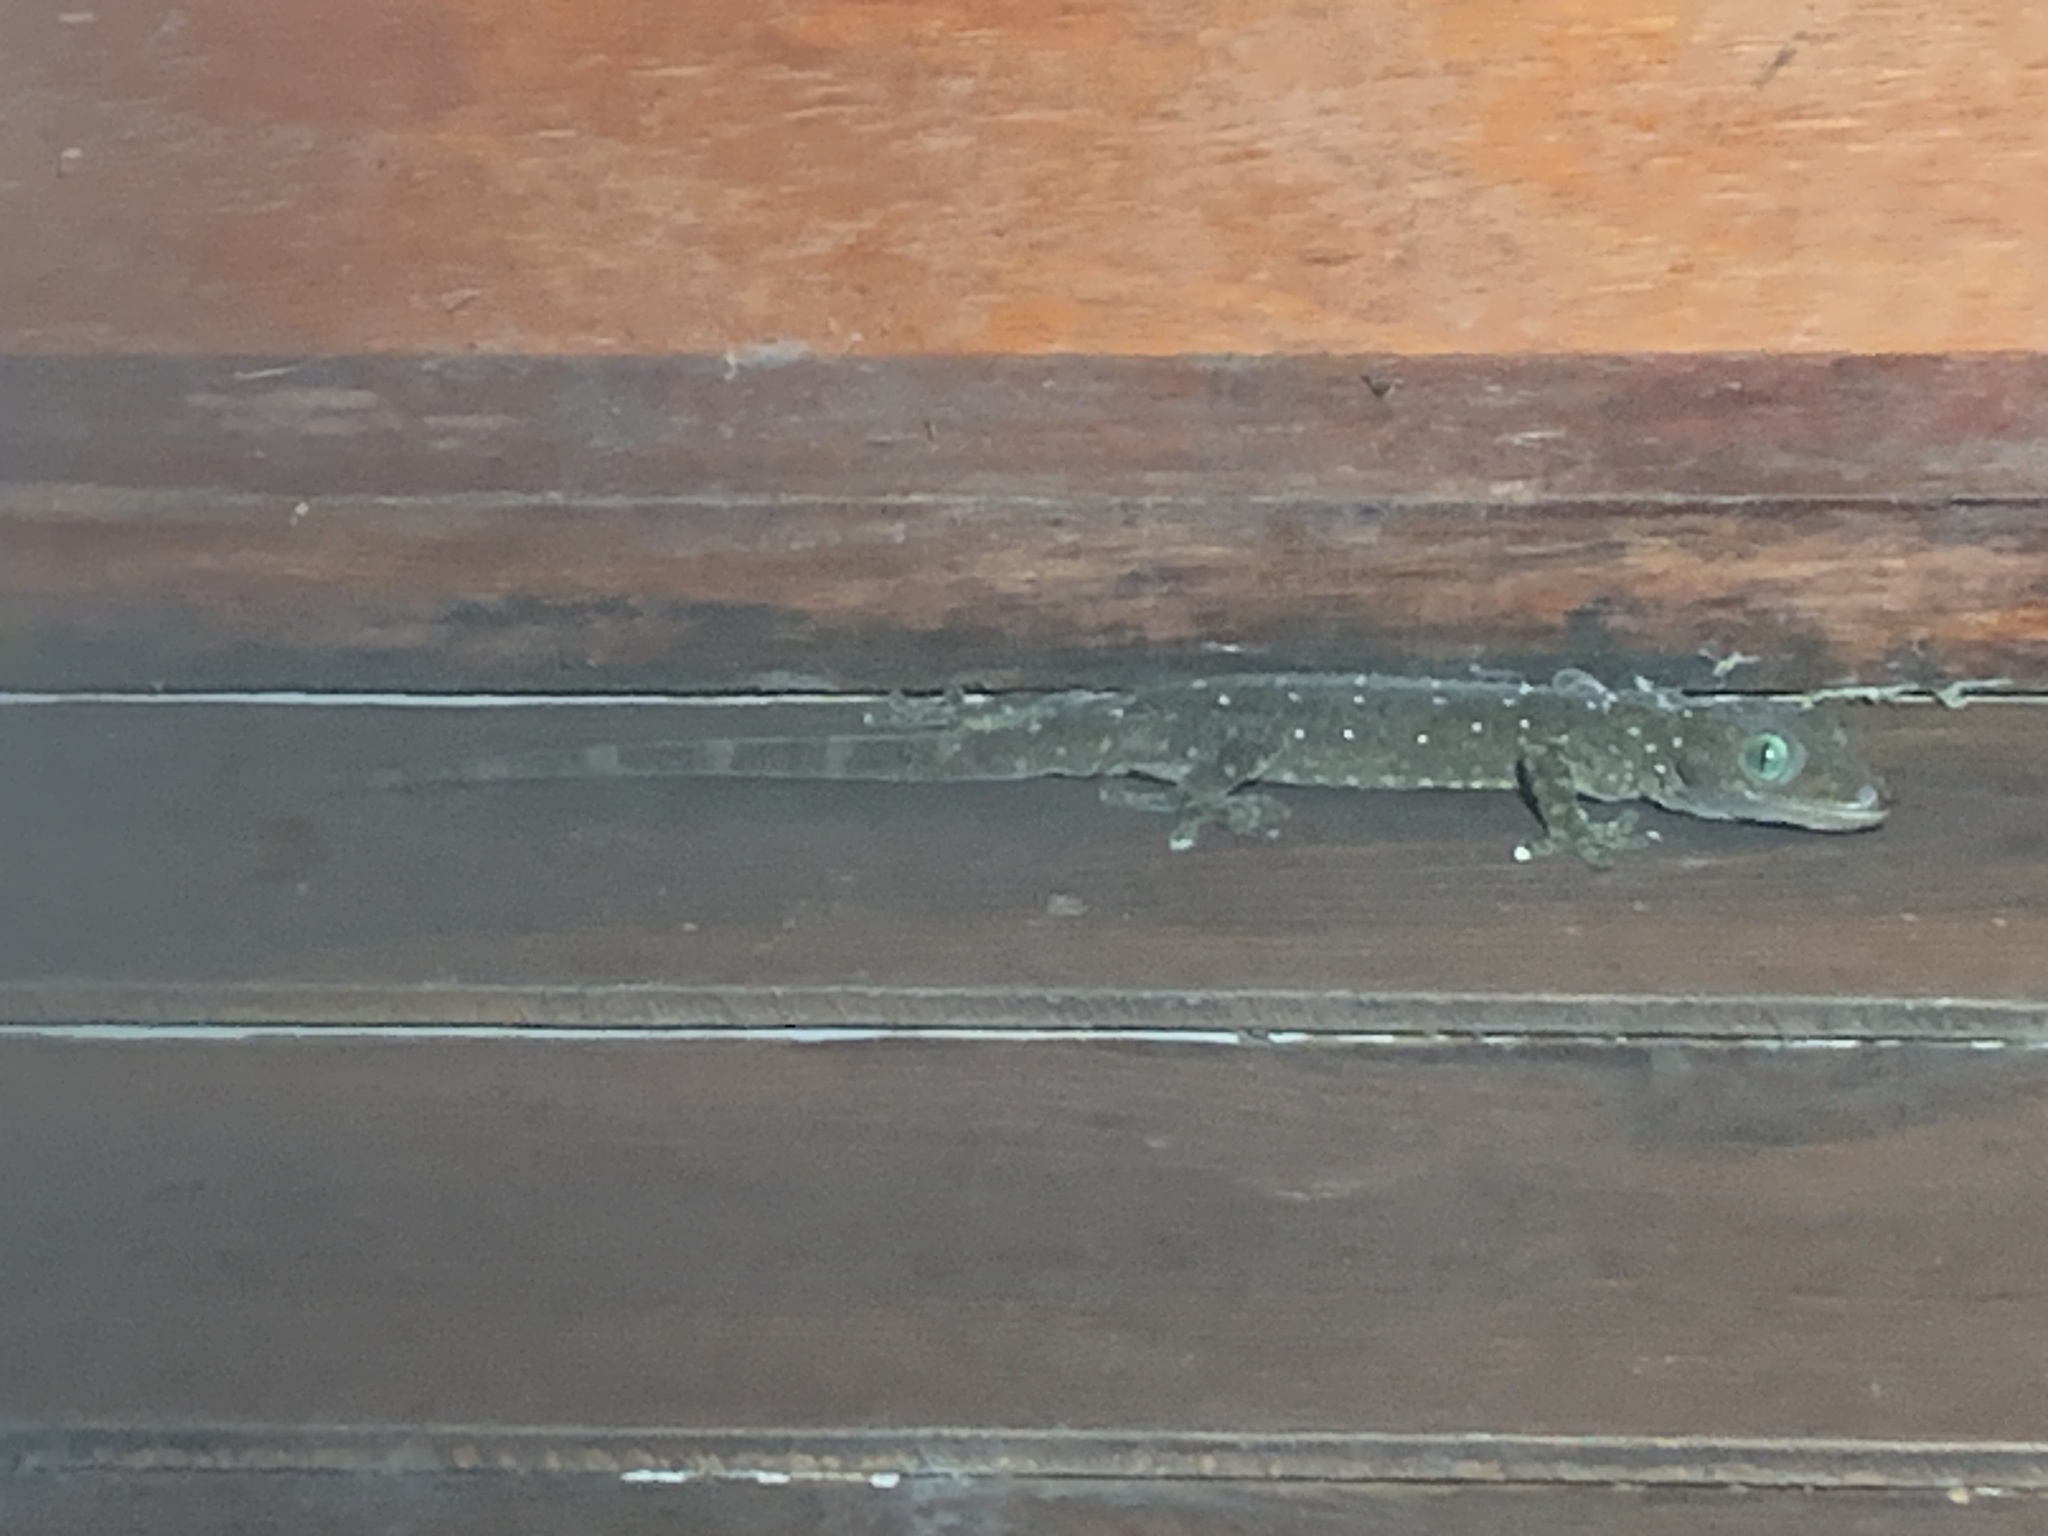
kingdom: Animalia
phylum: Chordata
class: Squamata
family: Gekkonidae
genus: Gekko
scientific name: Gekko albofasciolatus
